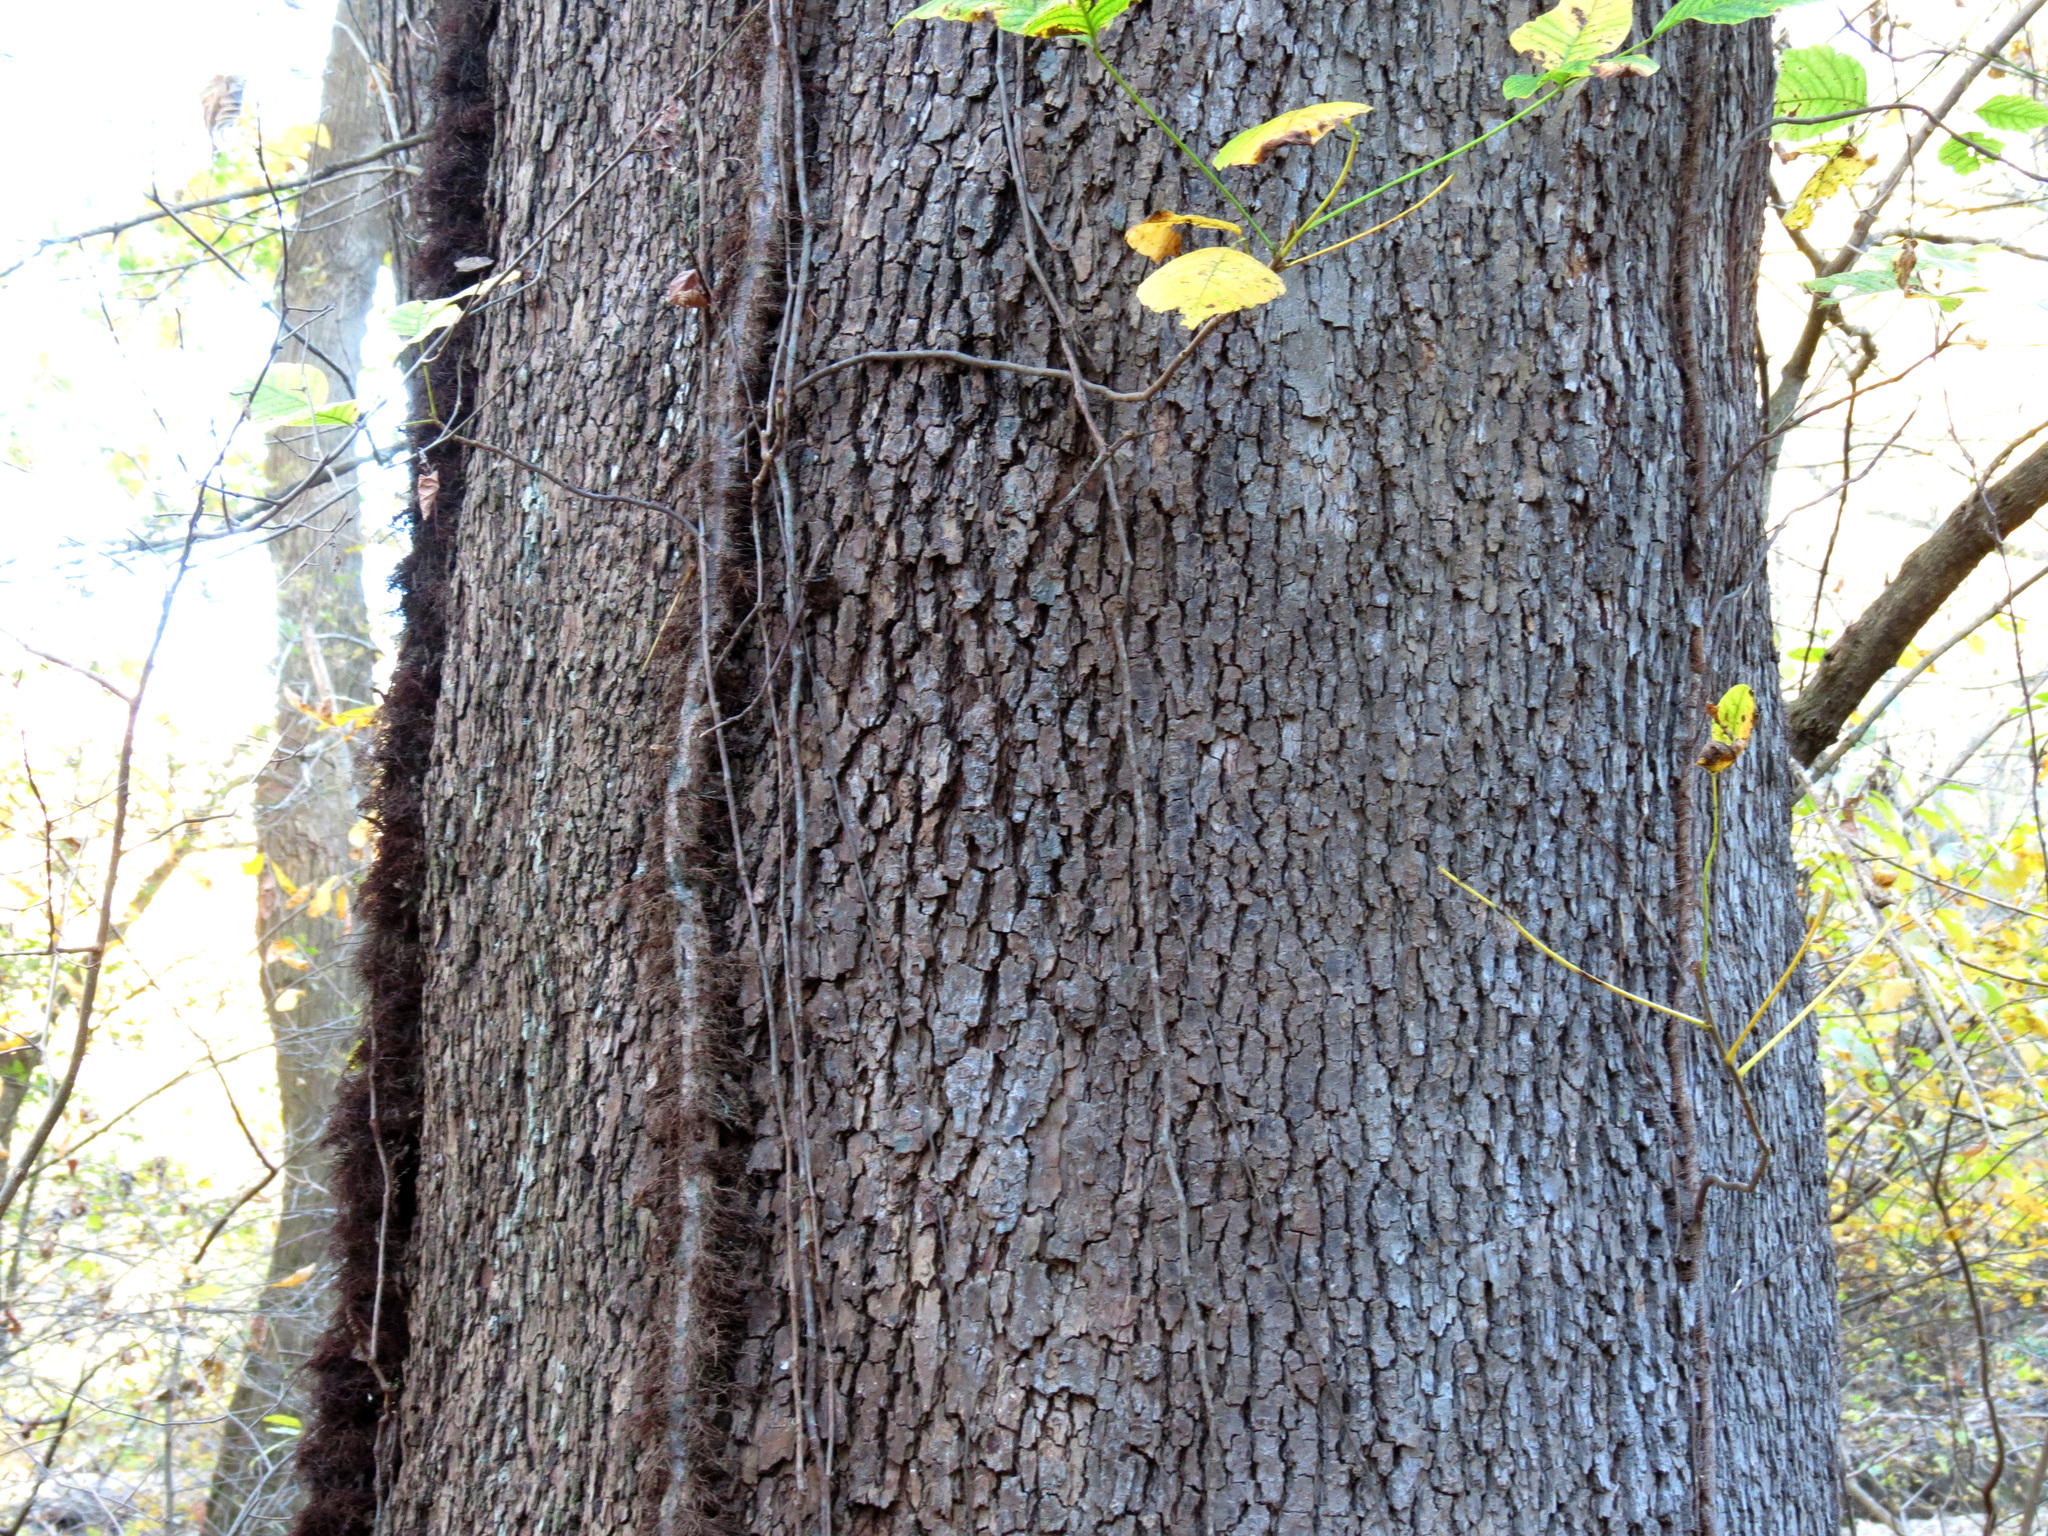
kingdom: Plantae
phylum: Tracheophyta
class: Magnoliopsida
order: Proteales
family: Platanaceae
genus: Platanus
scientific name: Platanus occidentalis
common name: American sycamore
